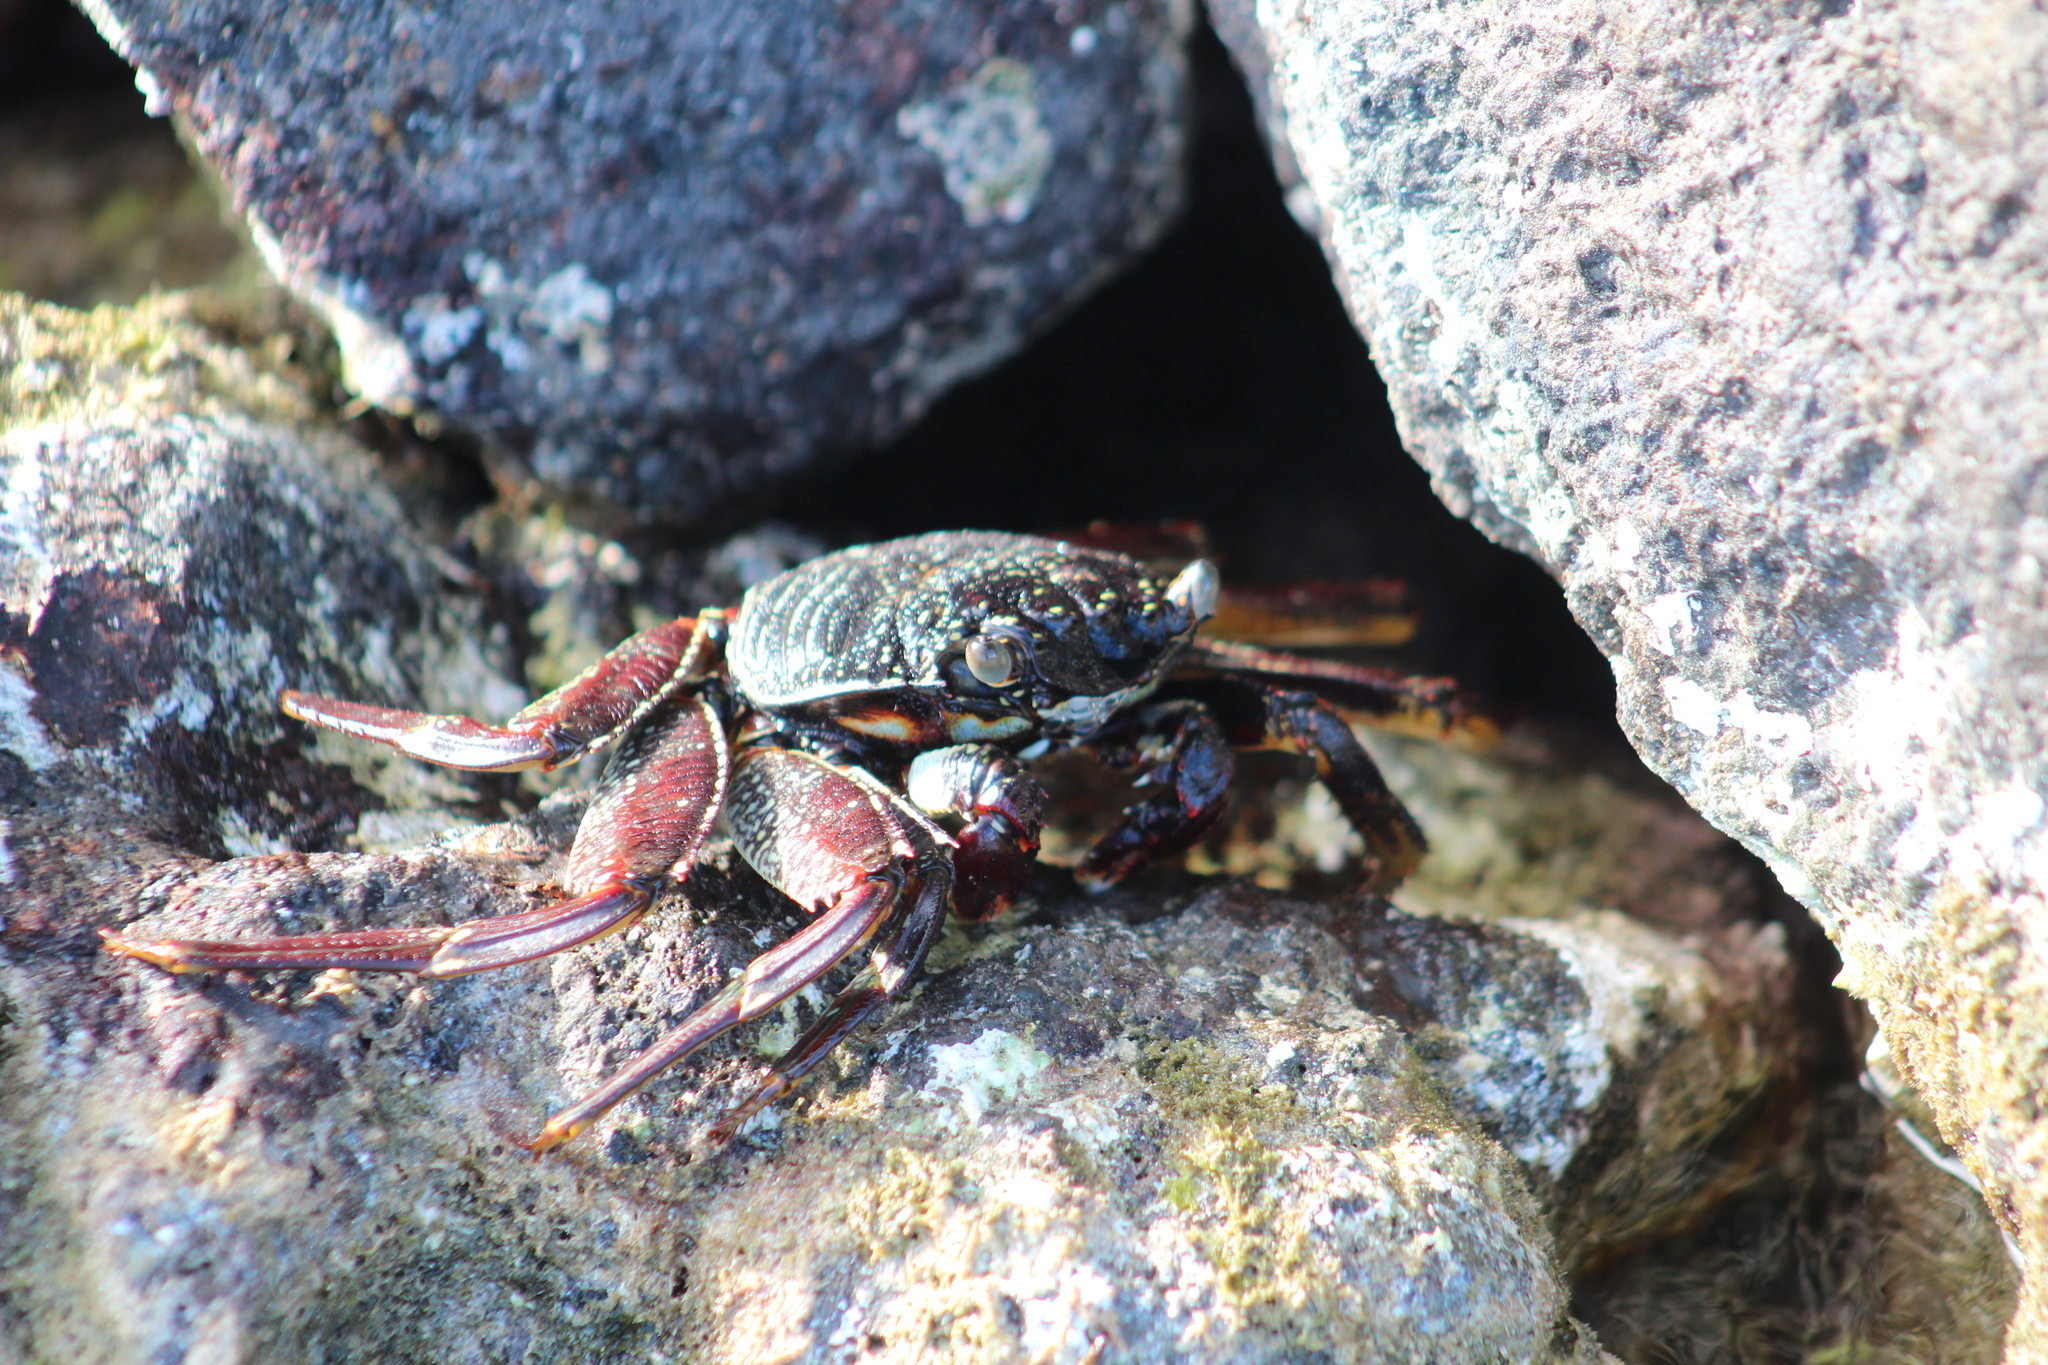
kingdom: Animalia
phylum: Arthropoda
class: Malacostraca
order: Decapoda
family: Grapsidae
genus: Grapsus
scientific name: Grapsus tenuicrustatus
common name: Natal lightfoot crab
